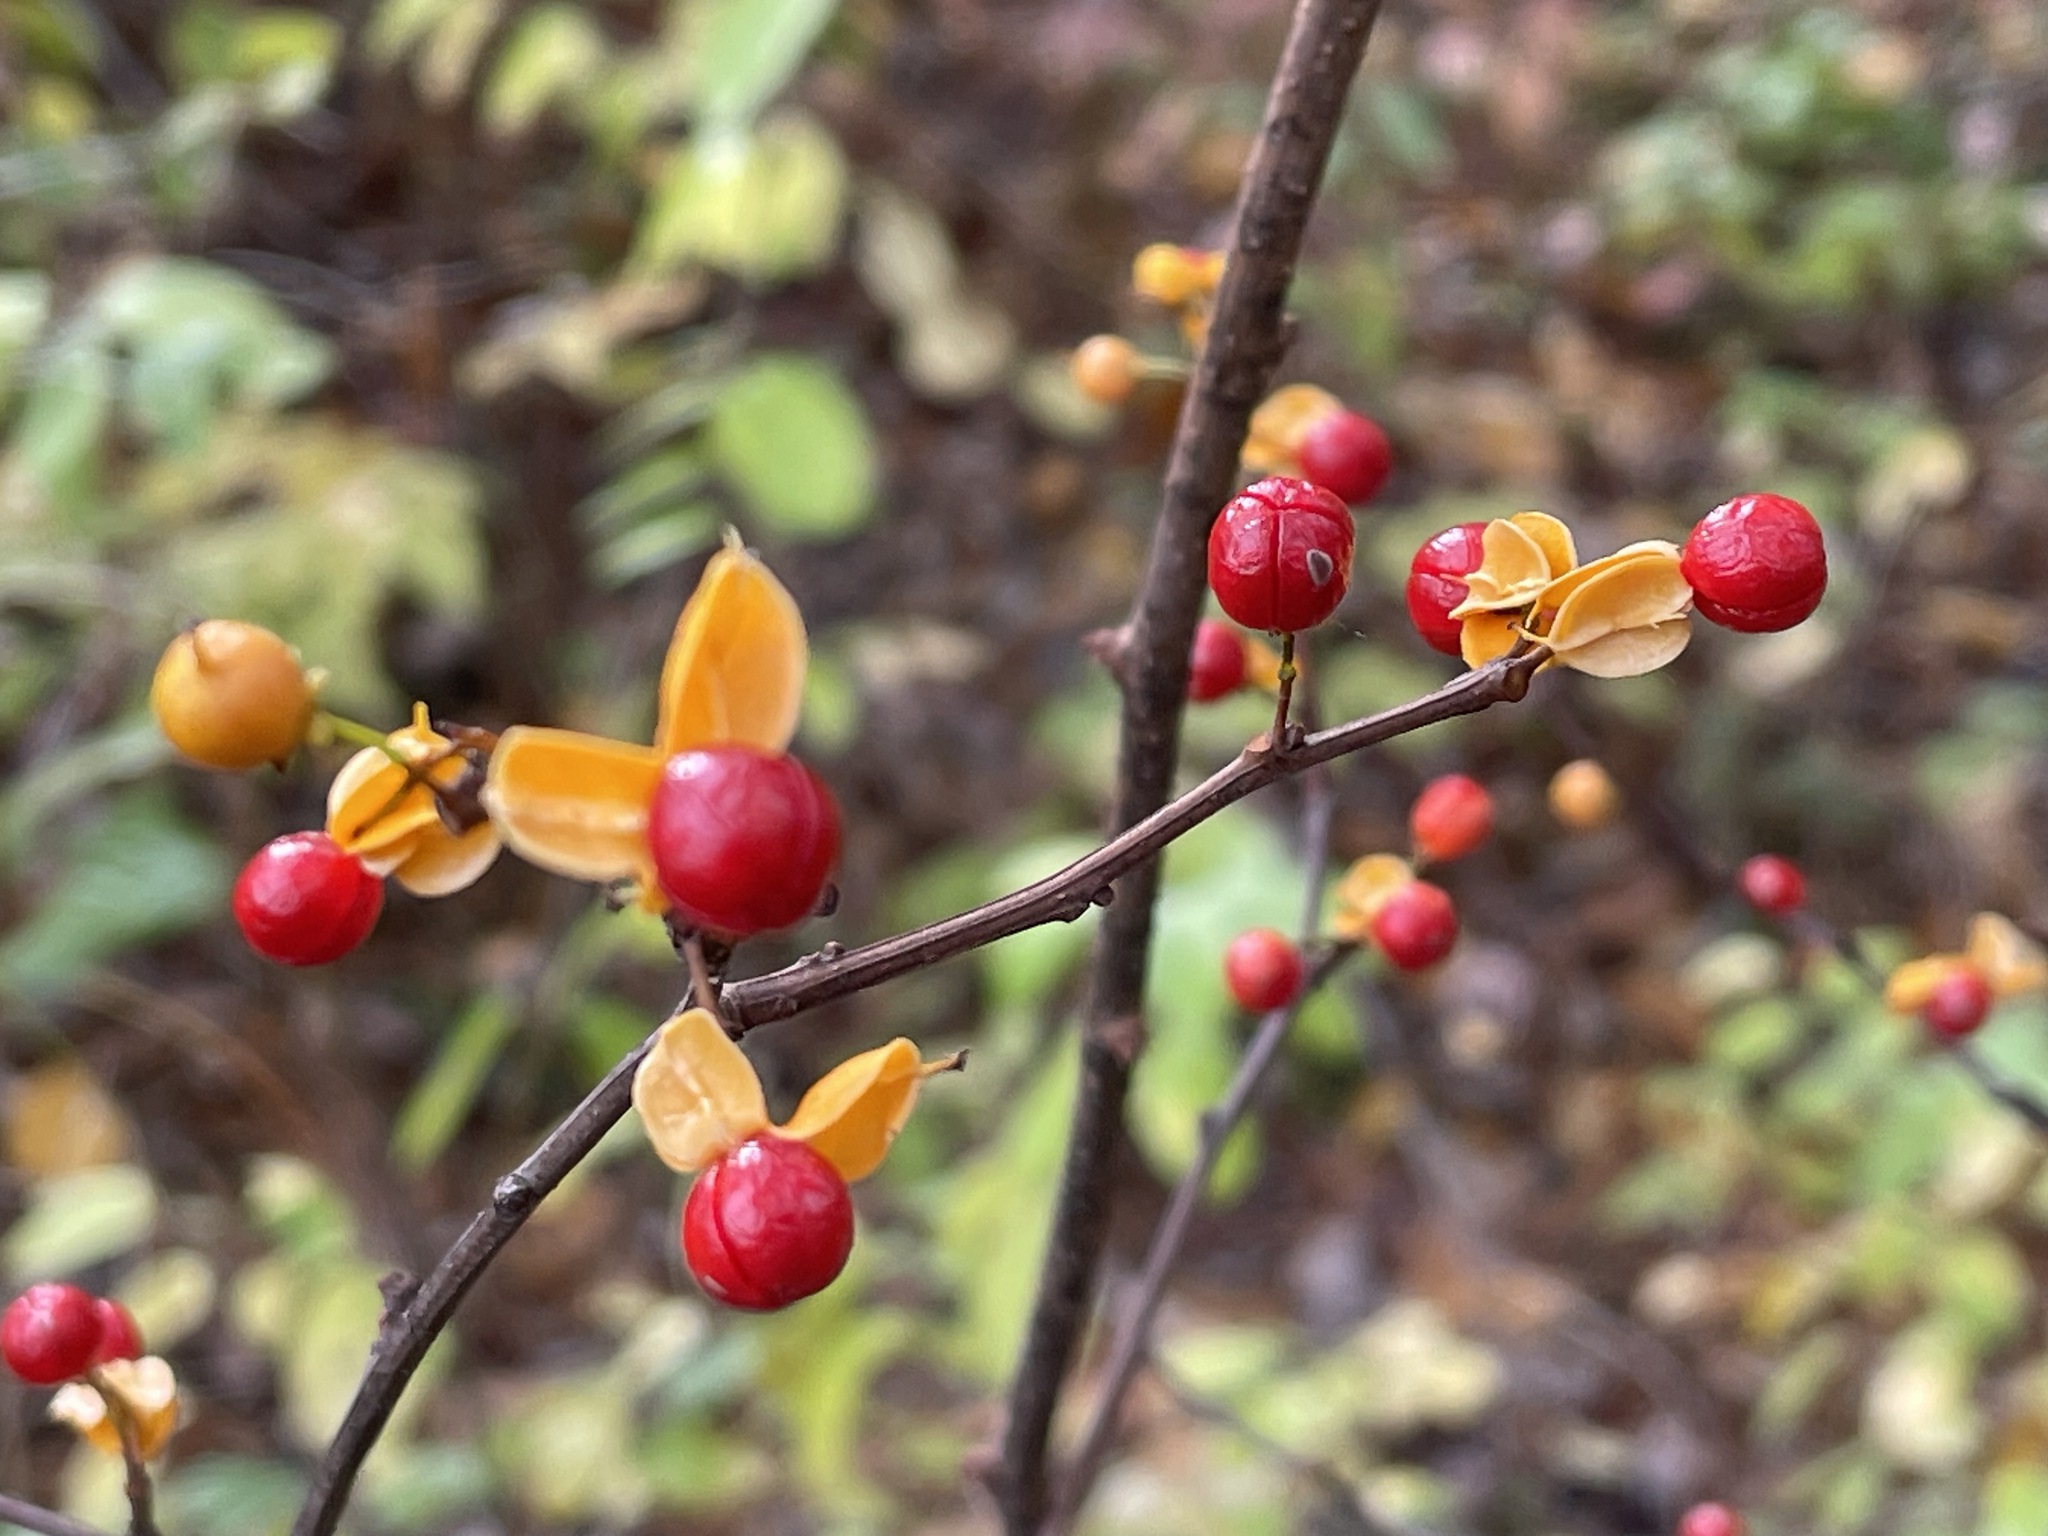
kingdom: Plantae
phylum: Tracheophyta
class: Magnoliopsida
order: Celastrales
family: Celastraceae
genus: Celastrus
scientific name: Celastrus orbiculatus
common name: Oriental bittersweet
